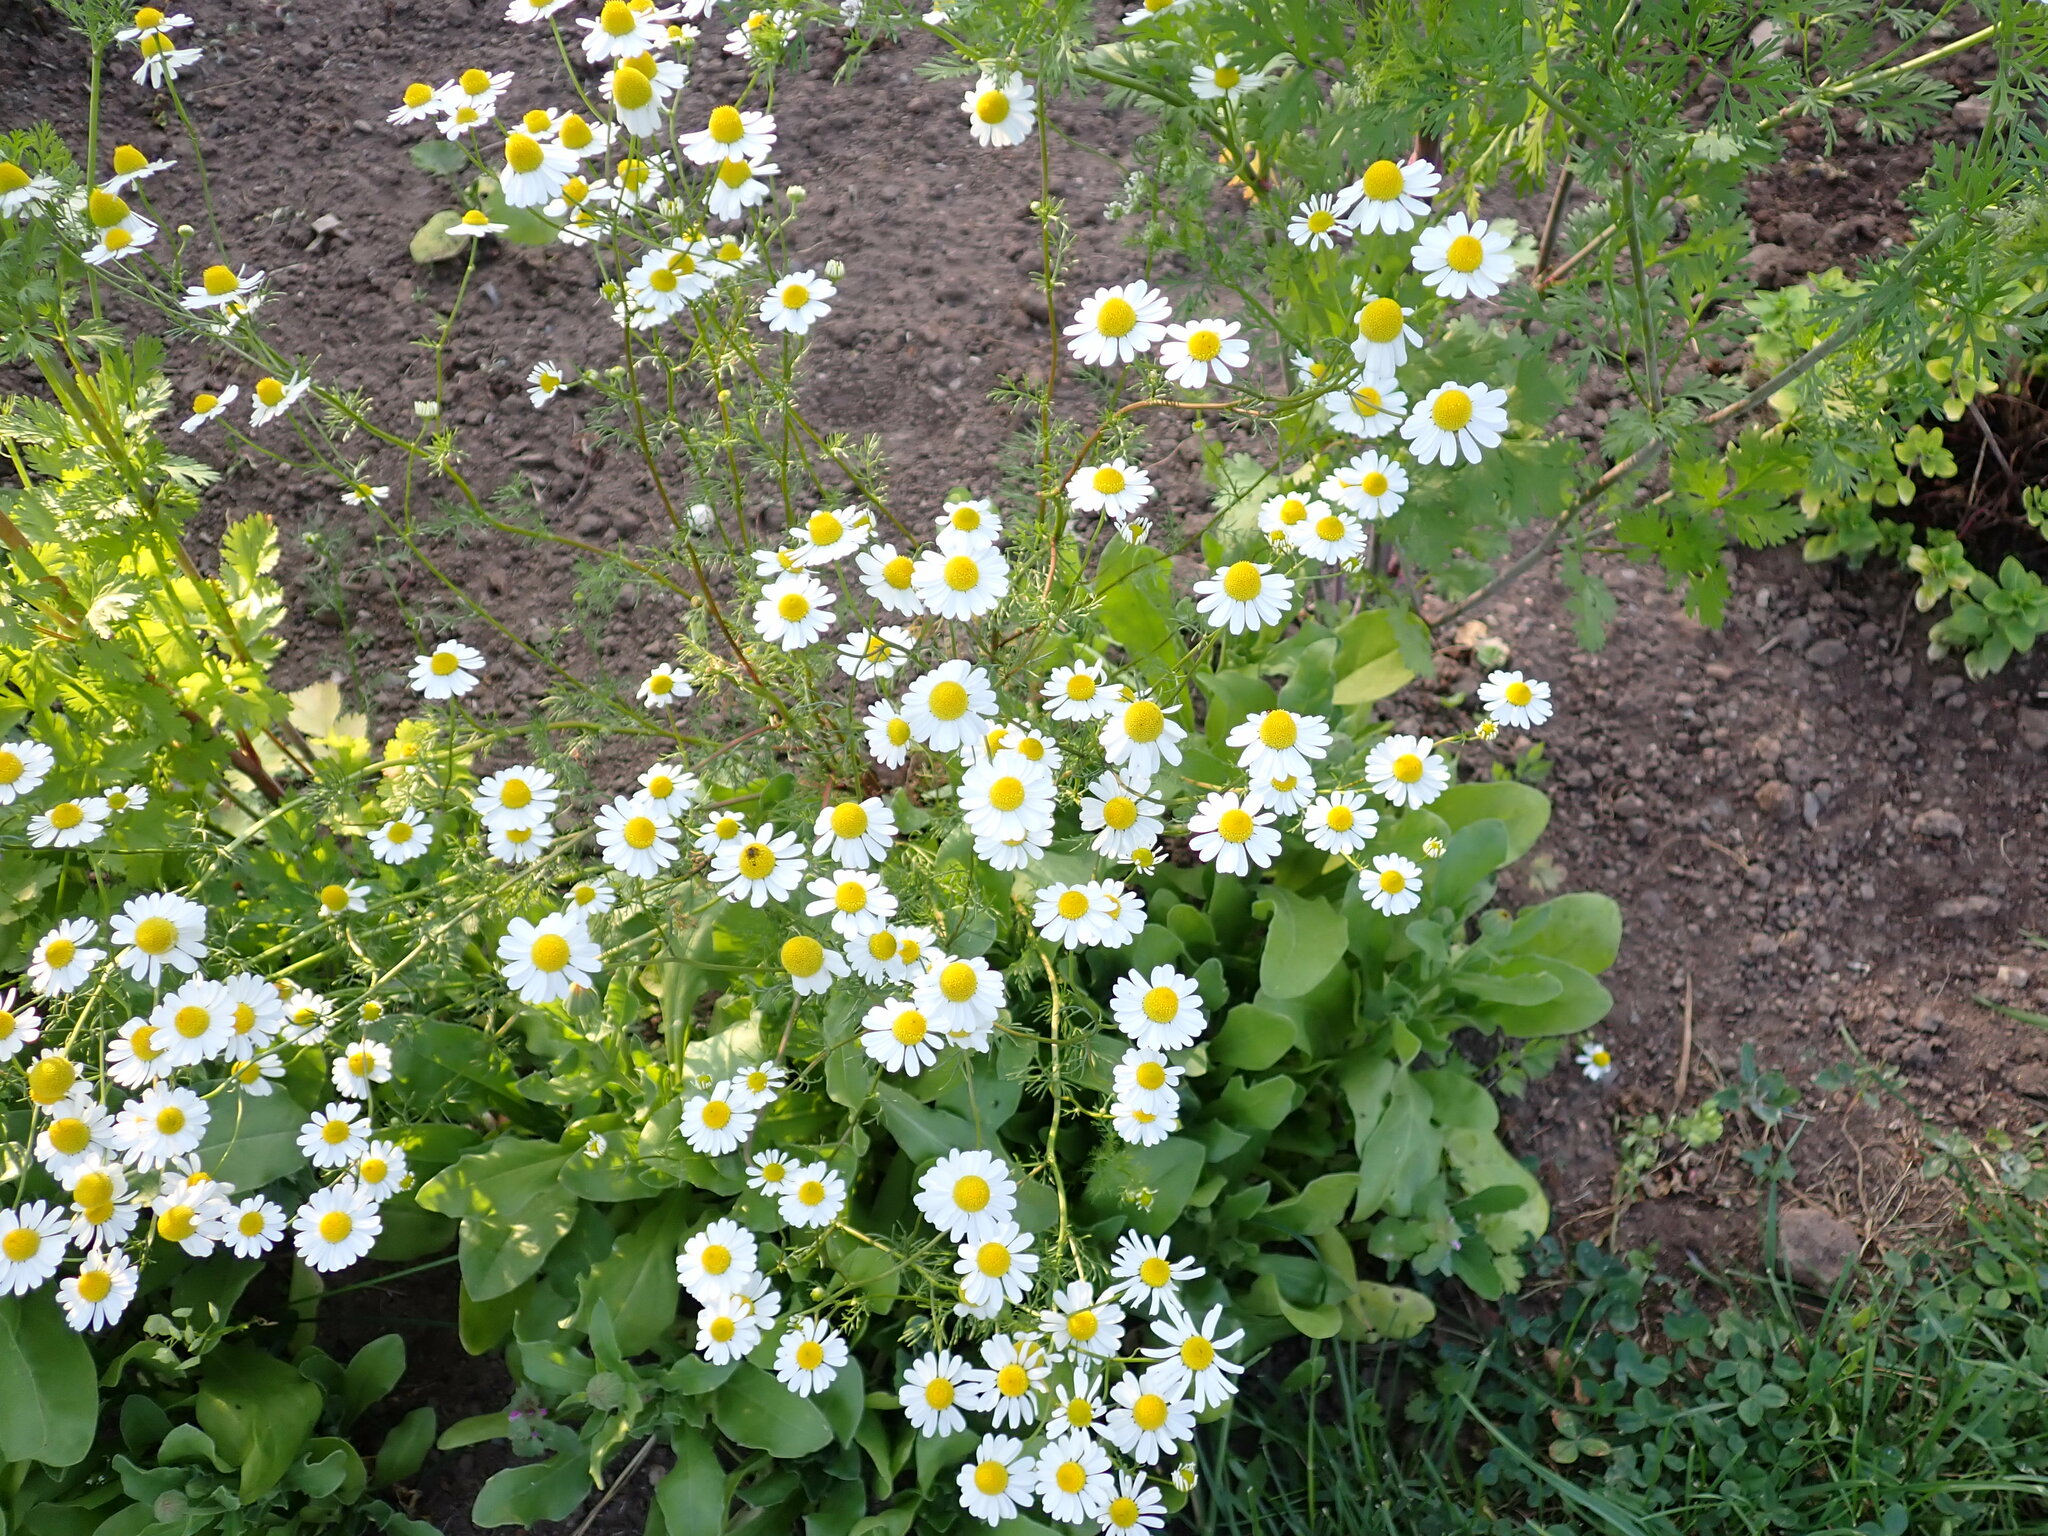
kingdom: Plantae
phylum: Tracheophyta
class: Magnoliopsida
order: Asterales
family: Asteraceae
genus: Matricaria
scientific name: Matricaria chamomilla
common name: Scented mayweed
